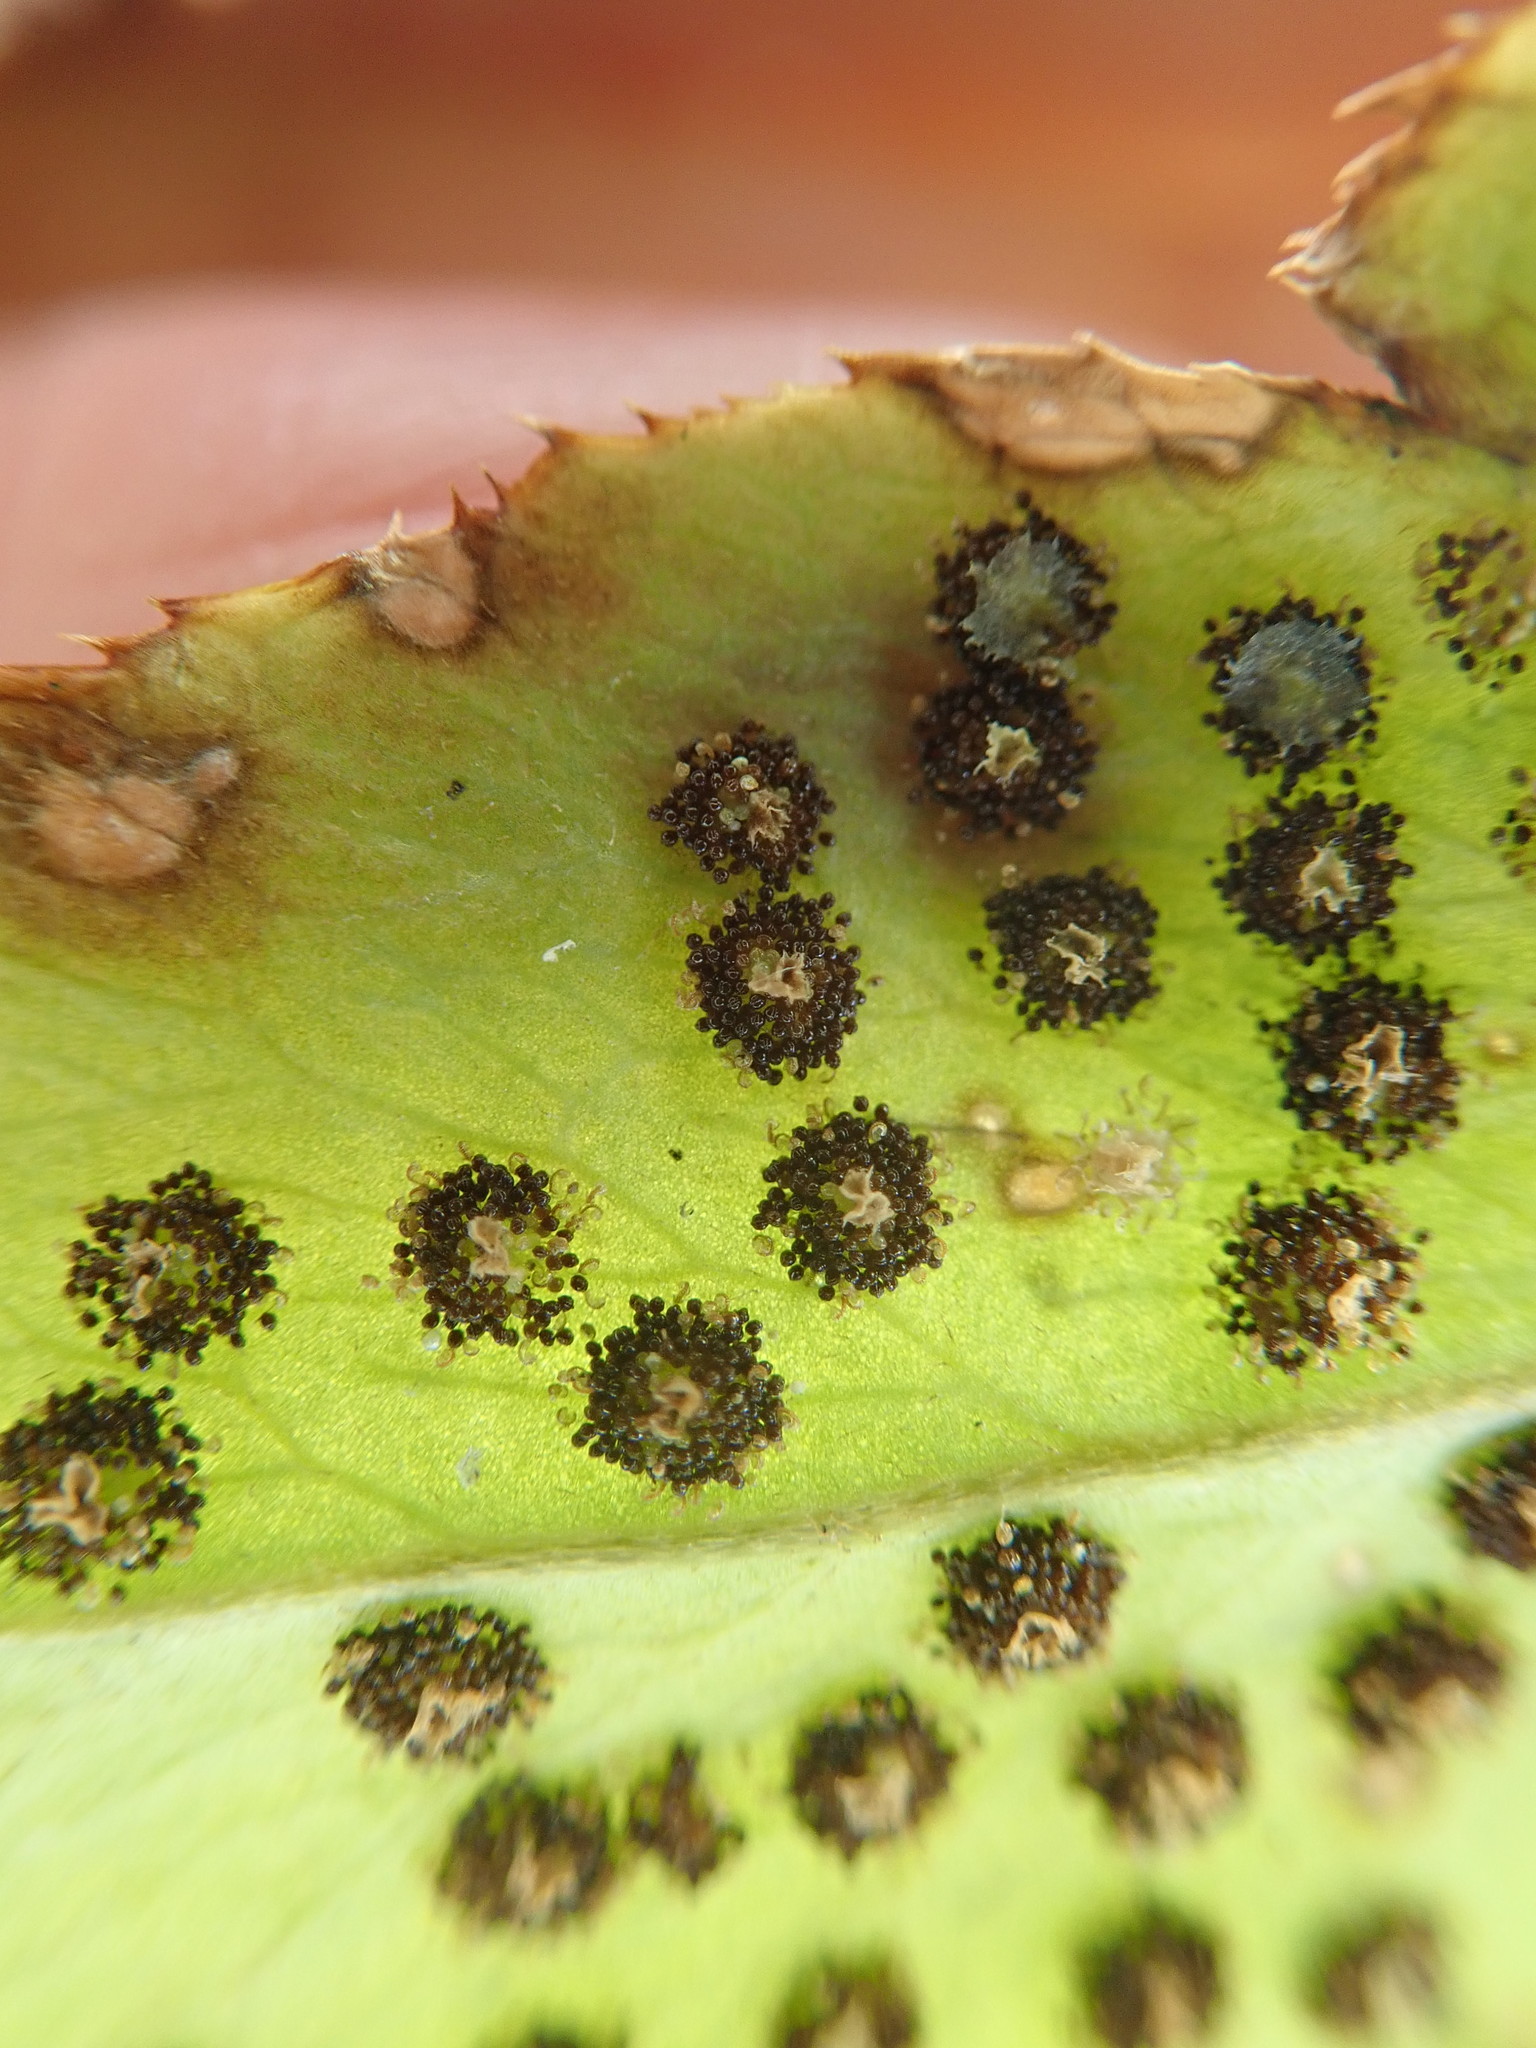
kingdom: Plantae
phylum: Tracheophyta
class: Polypodiopsida
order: Polypodiales
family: Dryopteridaceae
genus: Cyrtomium
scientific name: Cyrtomium caryotideum
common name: Asiatic holly fern
